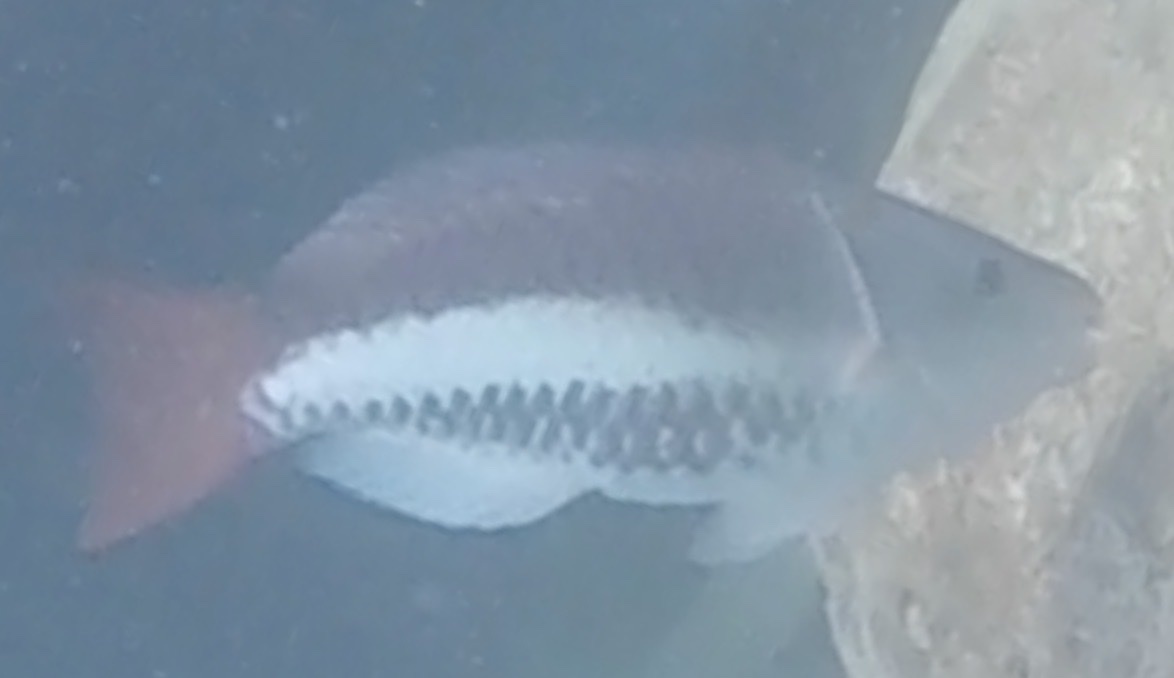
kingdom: Animalia
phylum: Chordata
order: Perciformes
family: Scaridae
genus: Scarus
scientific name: Scarus vetula
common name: Queen parrotfish
